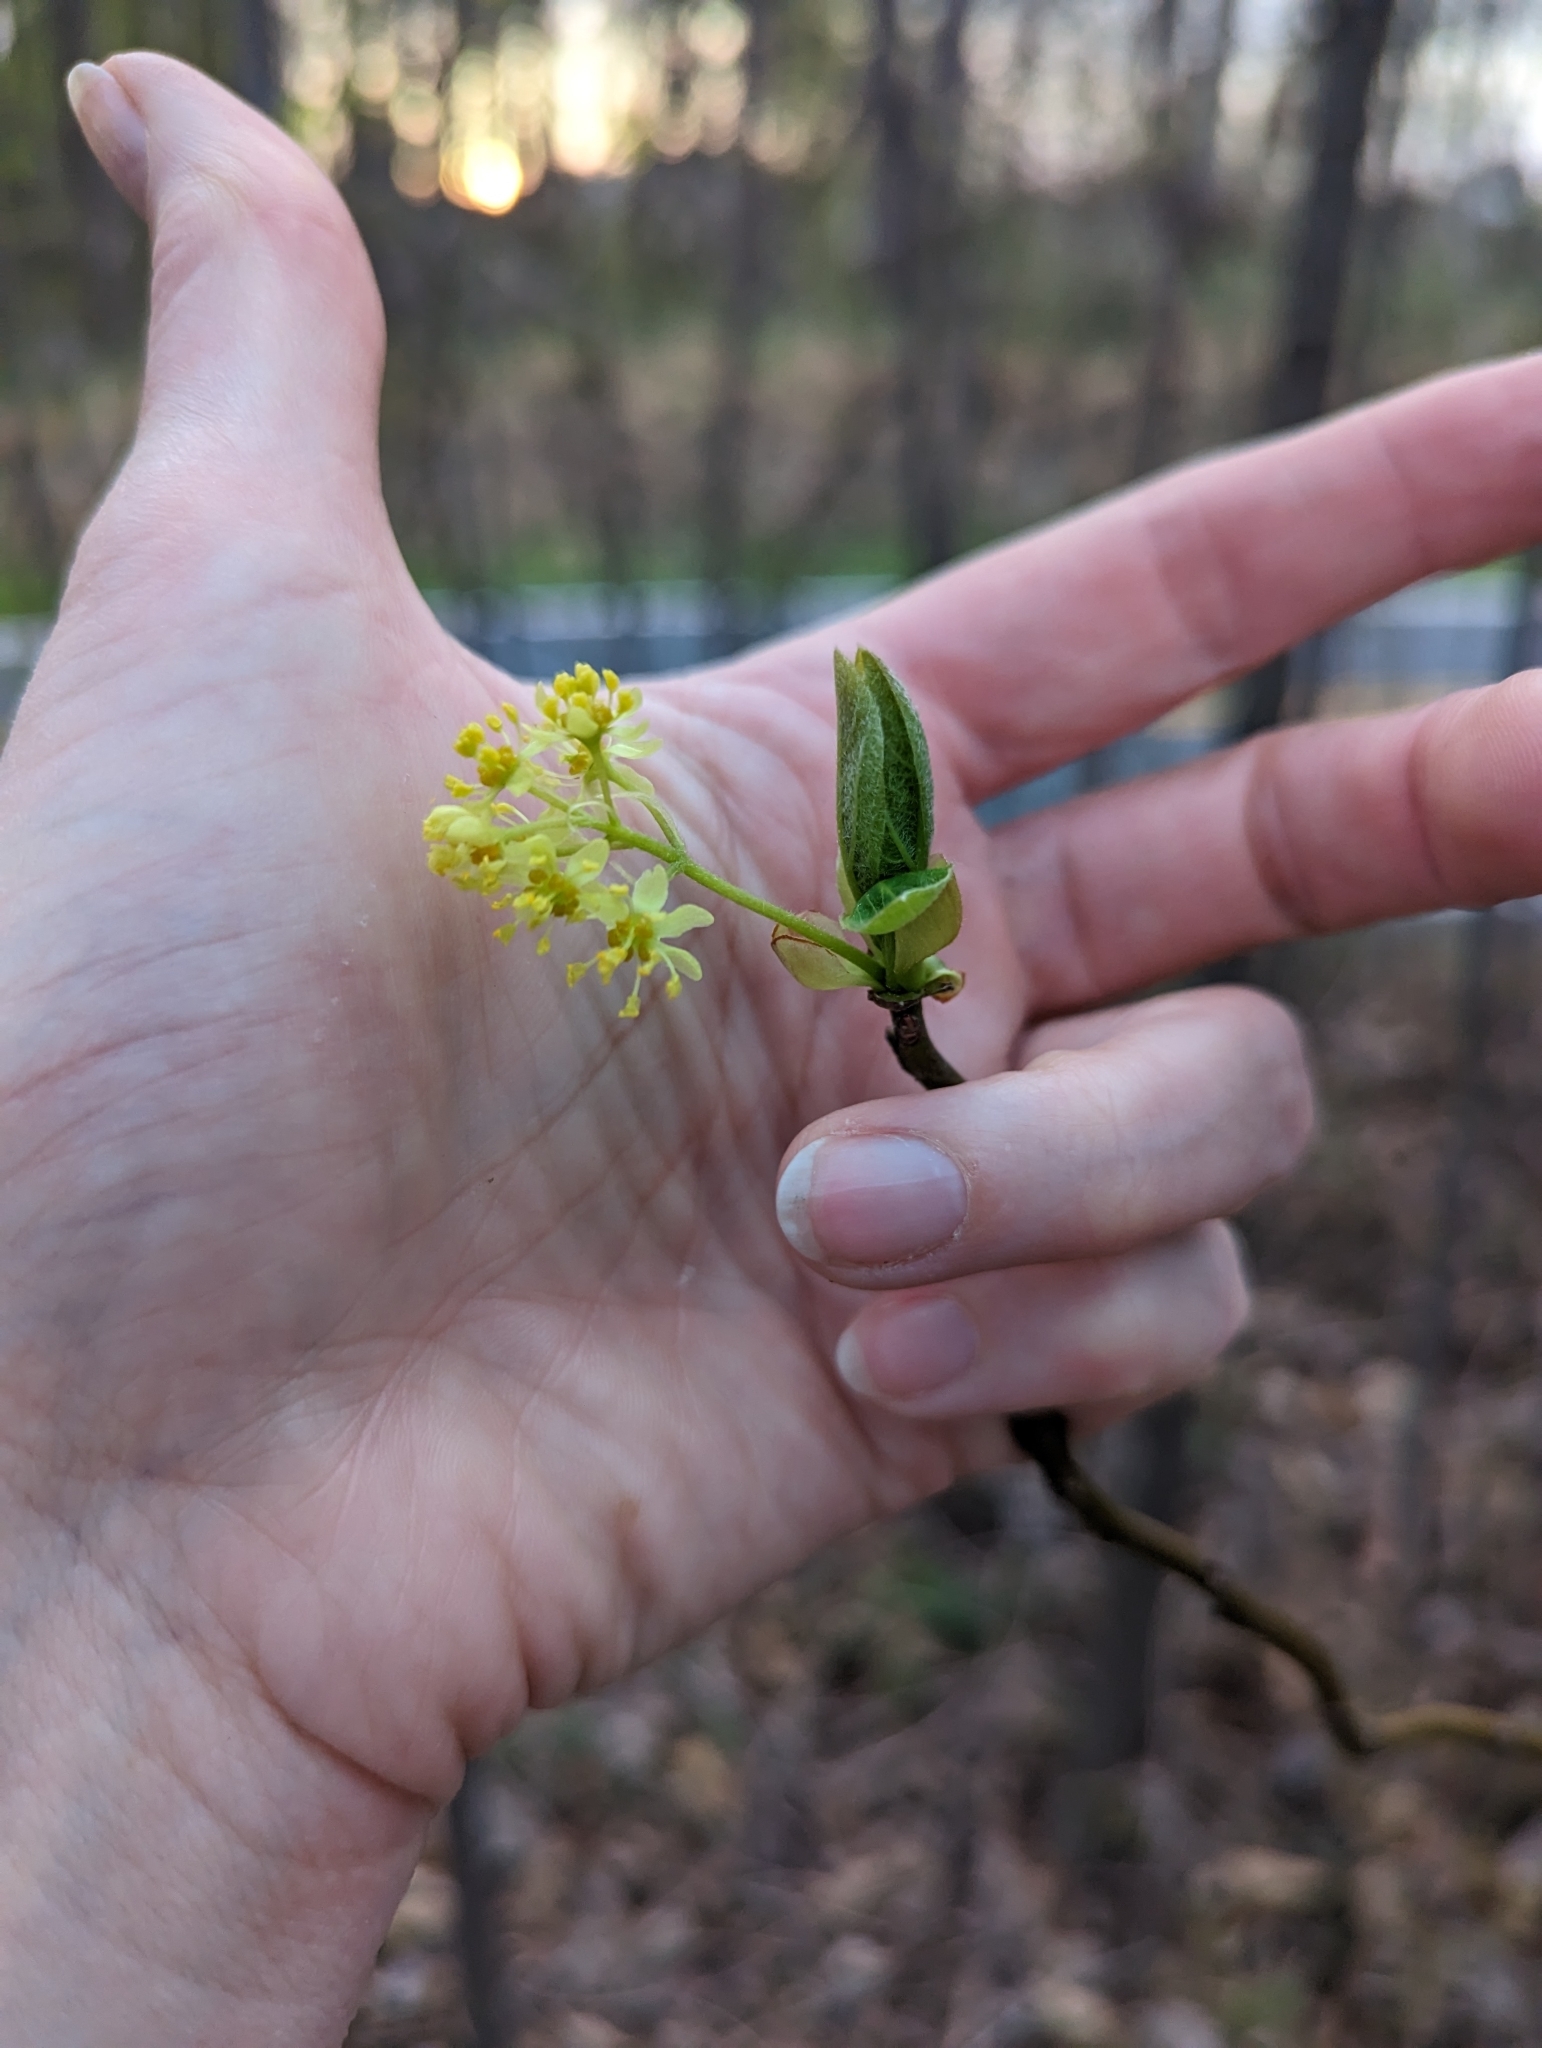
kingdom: Plantae
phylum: Tracheophyta
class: Magnoliopsida
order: Laurales
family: Lauraceae
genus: Sassafras
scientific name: Sassafras albidum
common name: Sassafras
